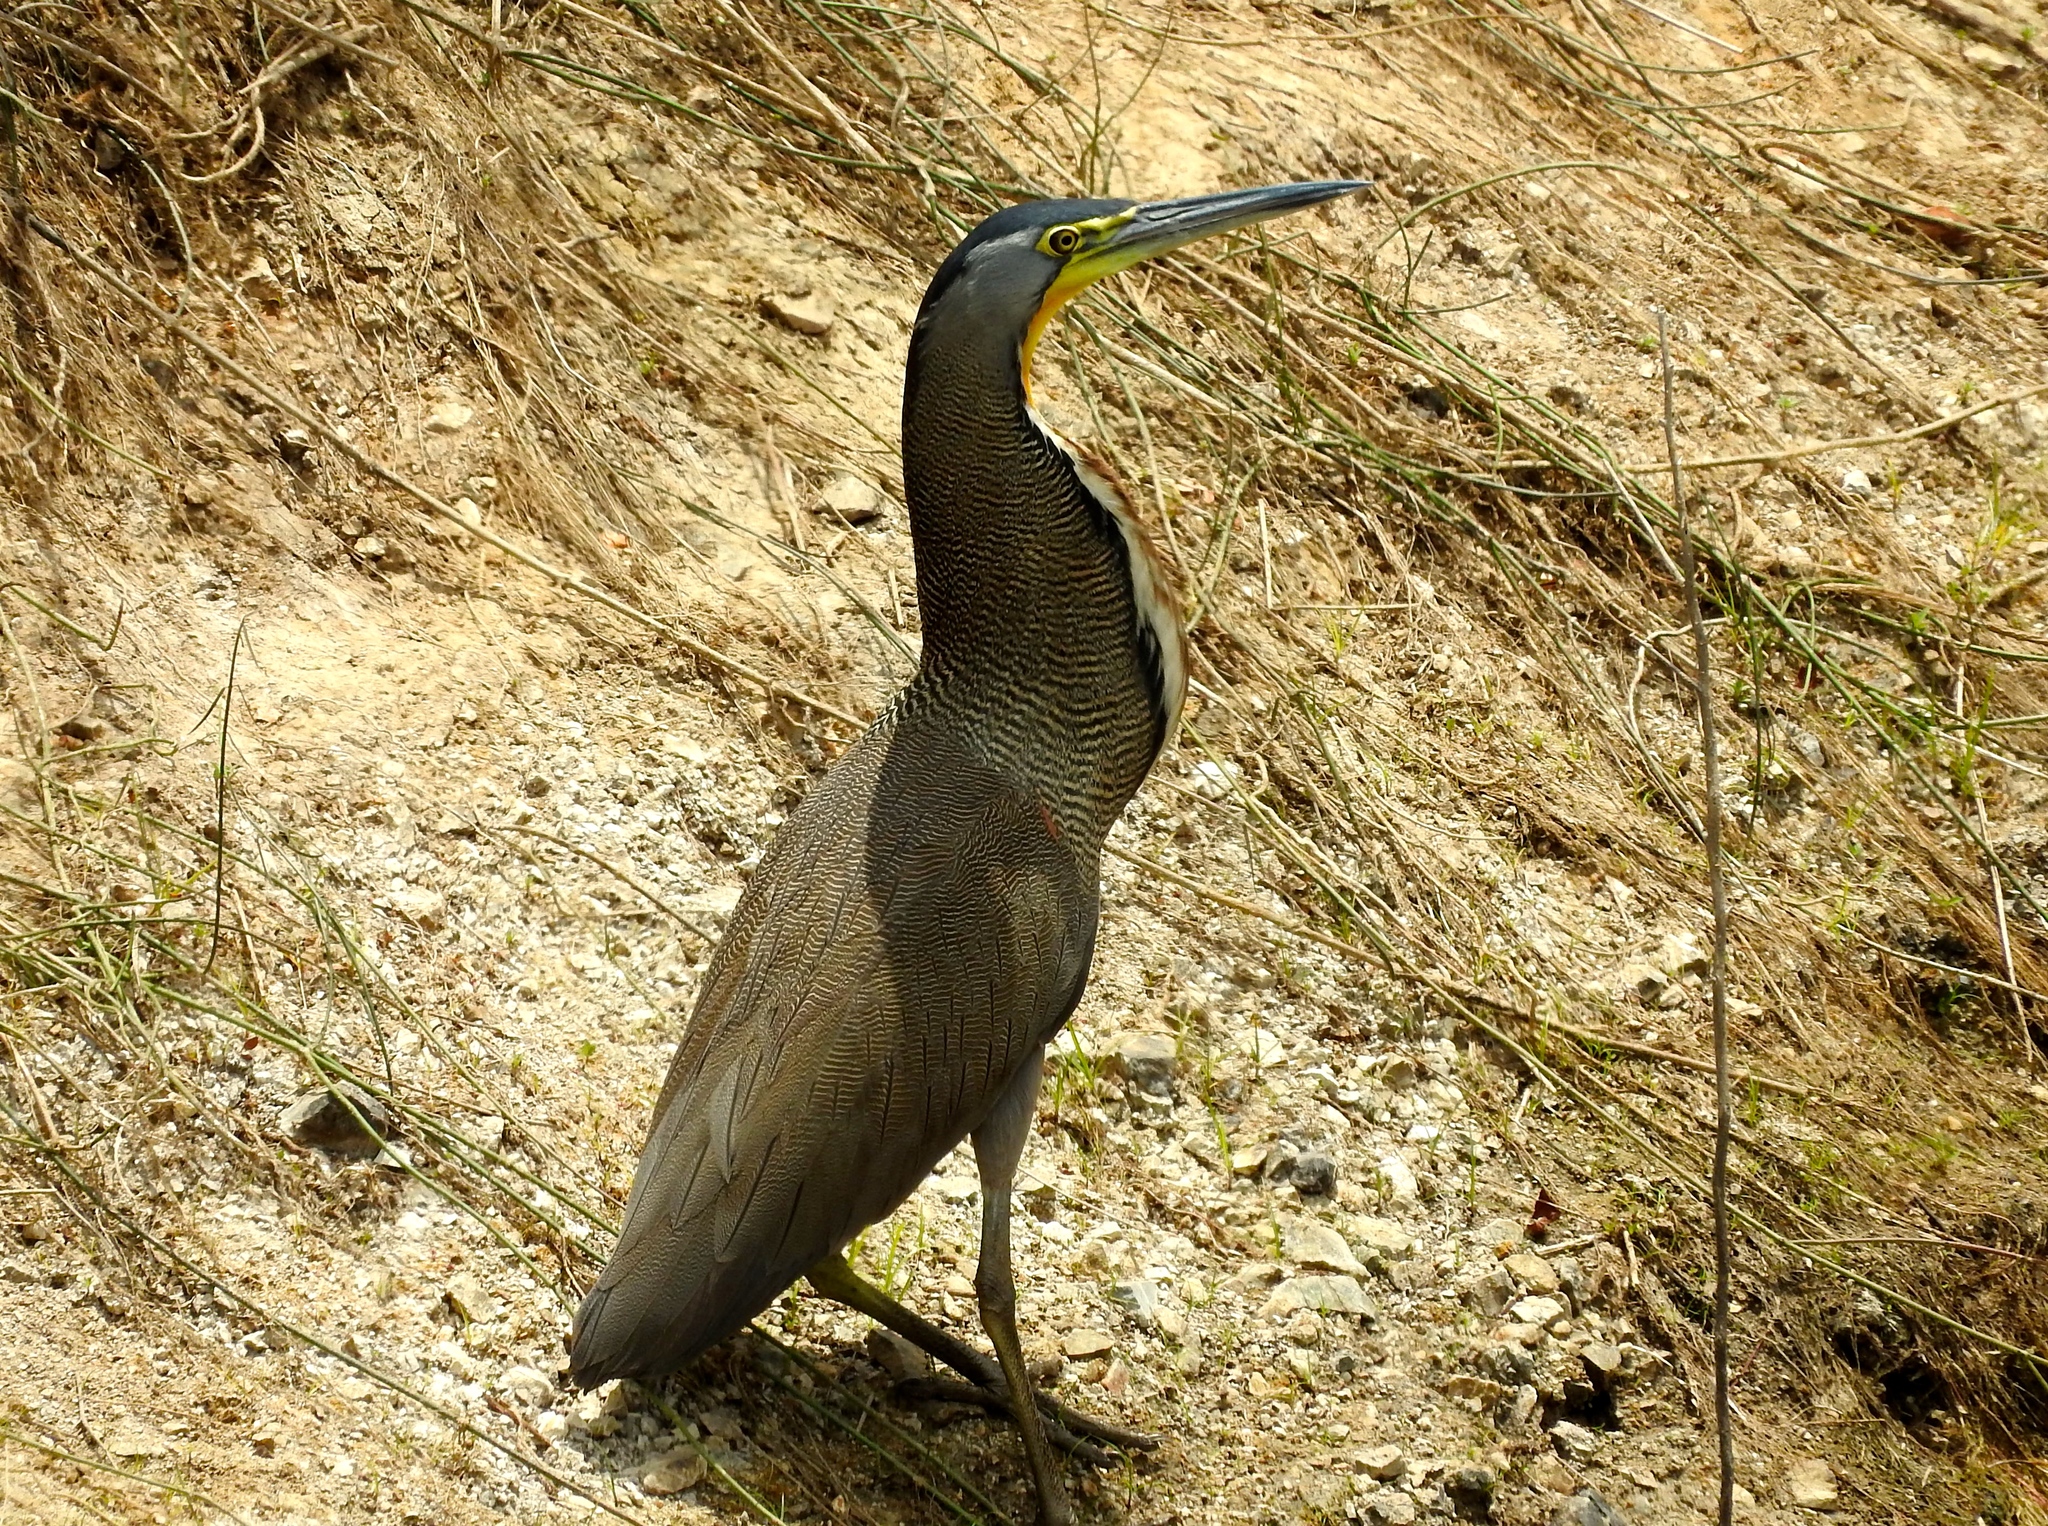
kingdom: Animalia
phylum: Chordata
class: Aves
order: Pelecaniformes
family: Ardeidae
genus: Tigrisoma
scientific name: Tigrisoma mexicanum
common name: Bare-throated tiger-heron
